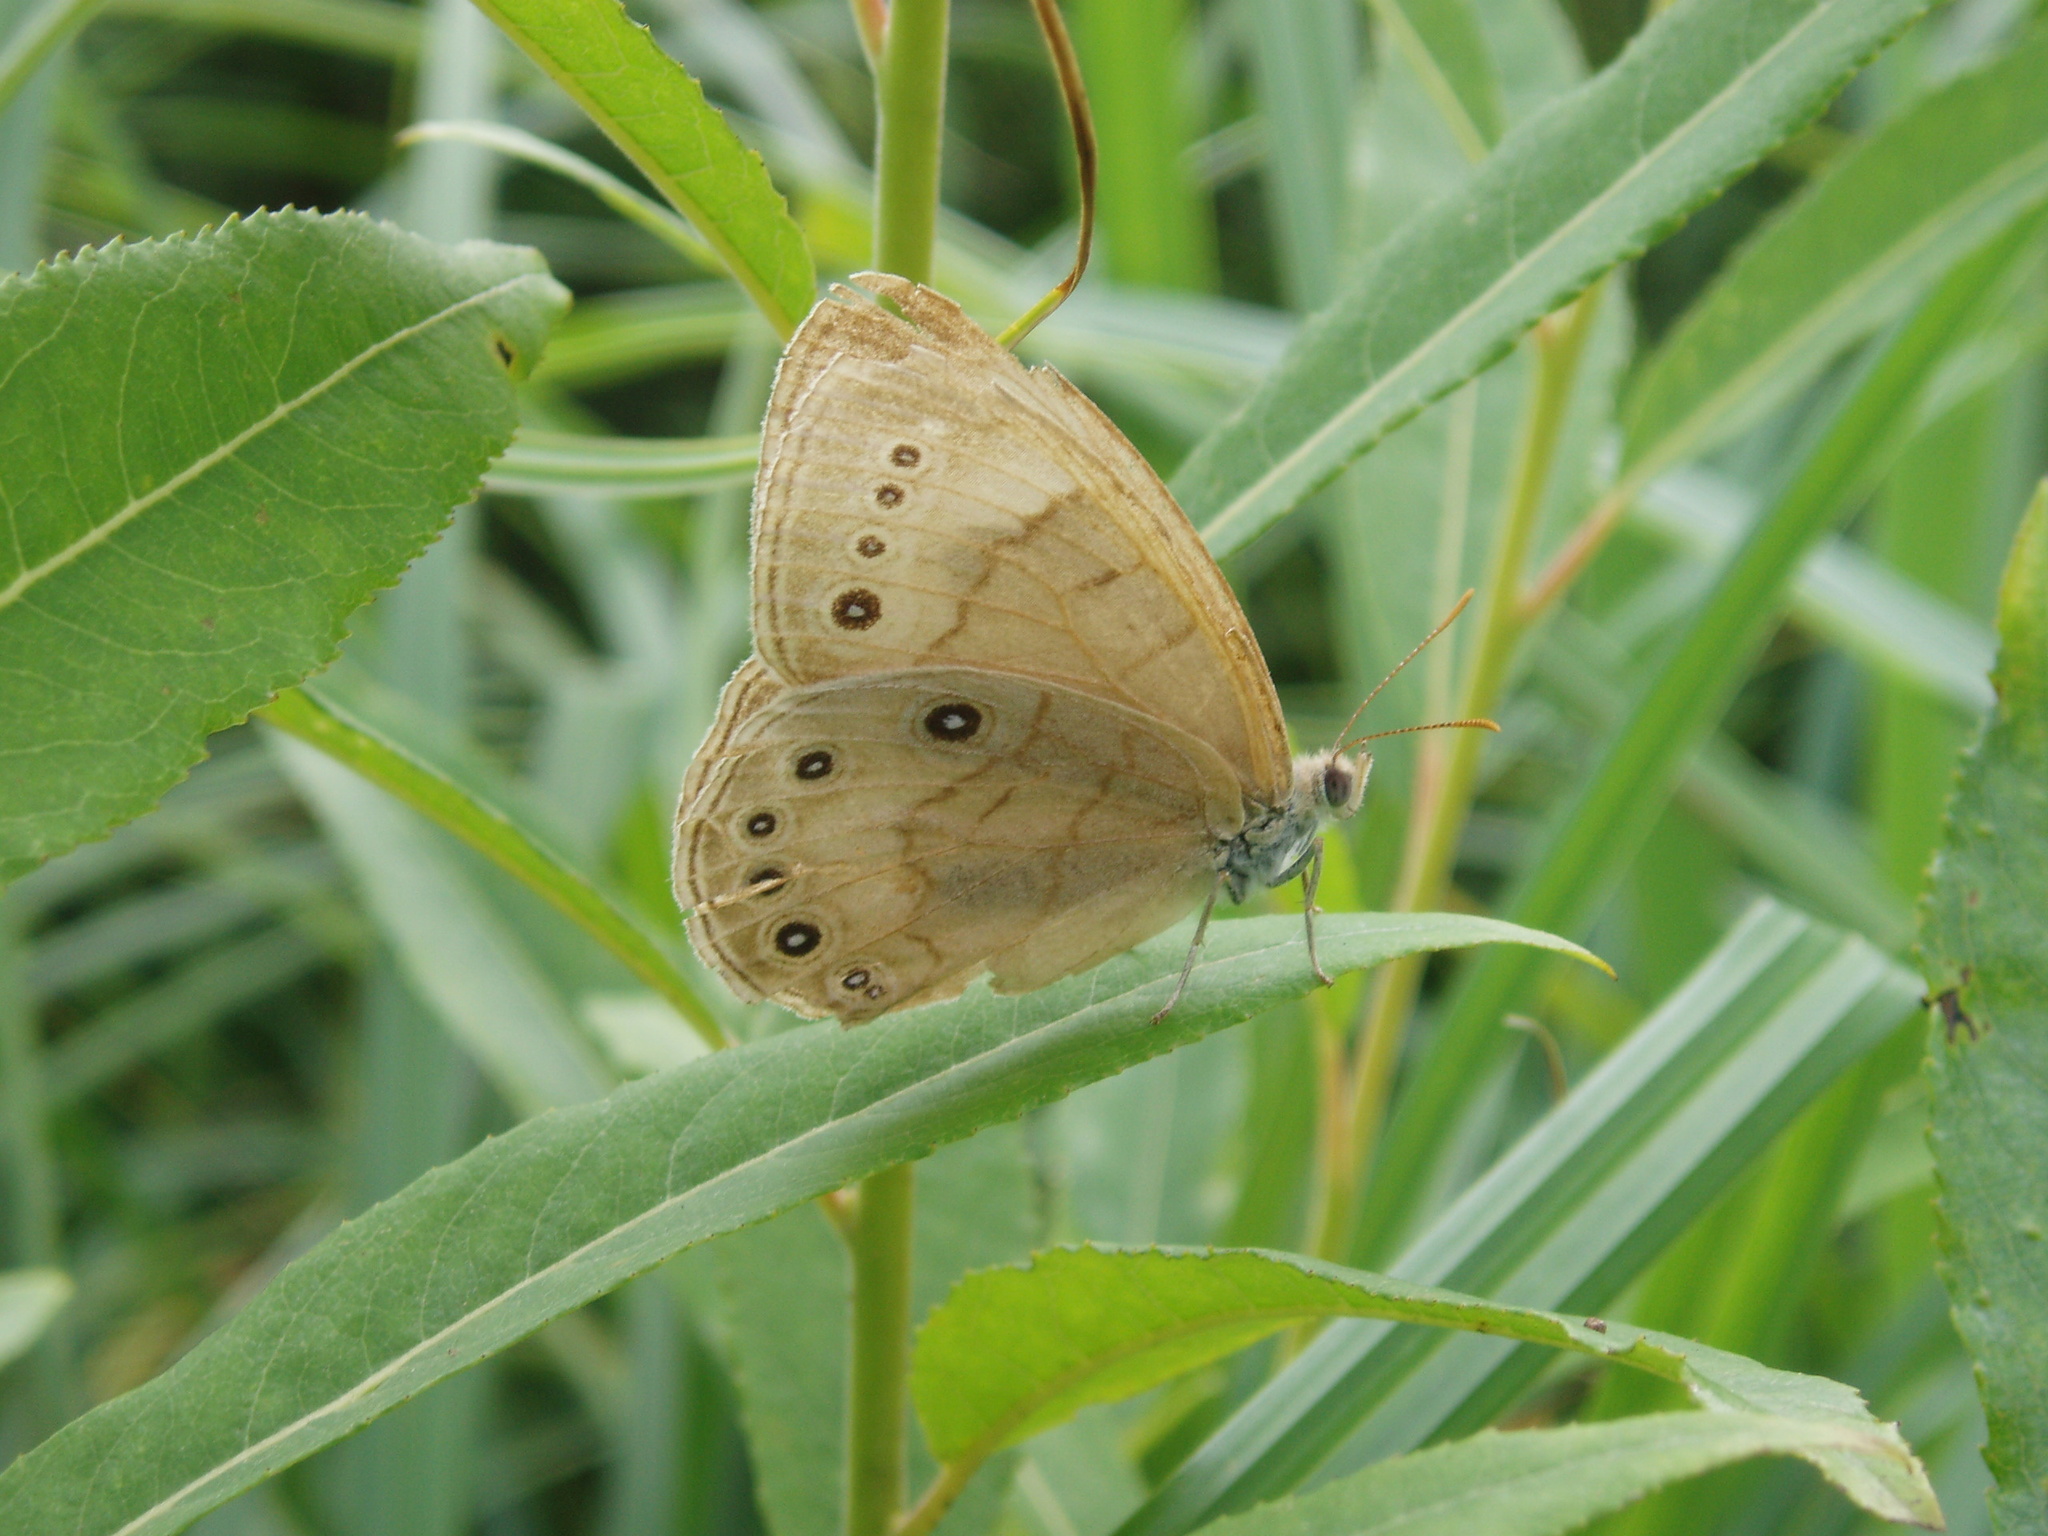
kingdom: Animalia
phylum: Arthropoda
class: Insecta
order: Lepidoptera
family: Nymphalidae
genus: Lethe
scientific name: Lethe eurydice
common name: Eyed brown
